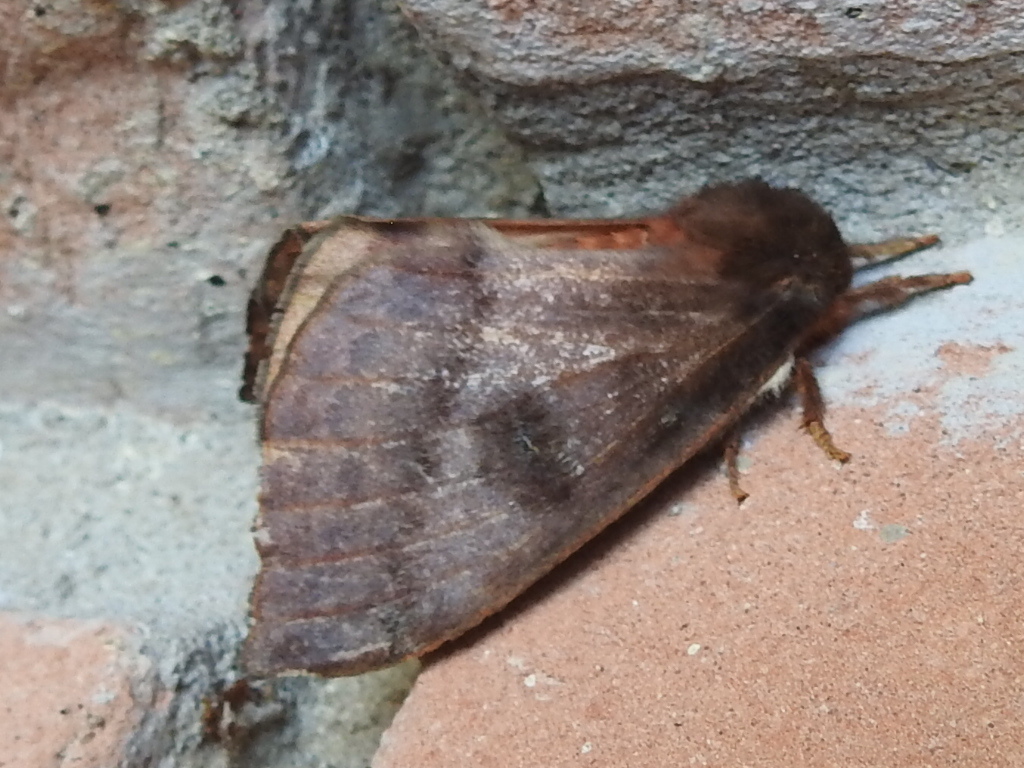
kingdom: Animalia
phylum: Arthropoda
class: Insecta
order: Lepidoptera
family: Saturniidae
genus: Automeris
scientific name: Automeris io
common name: Io moth
